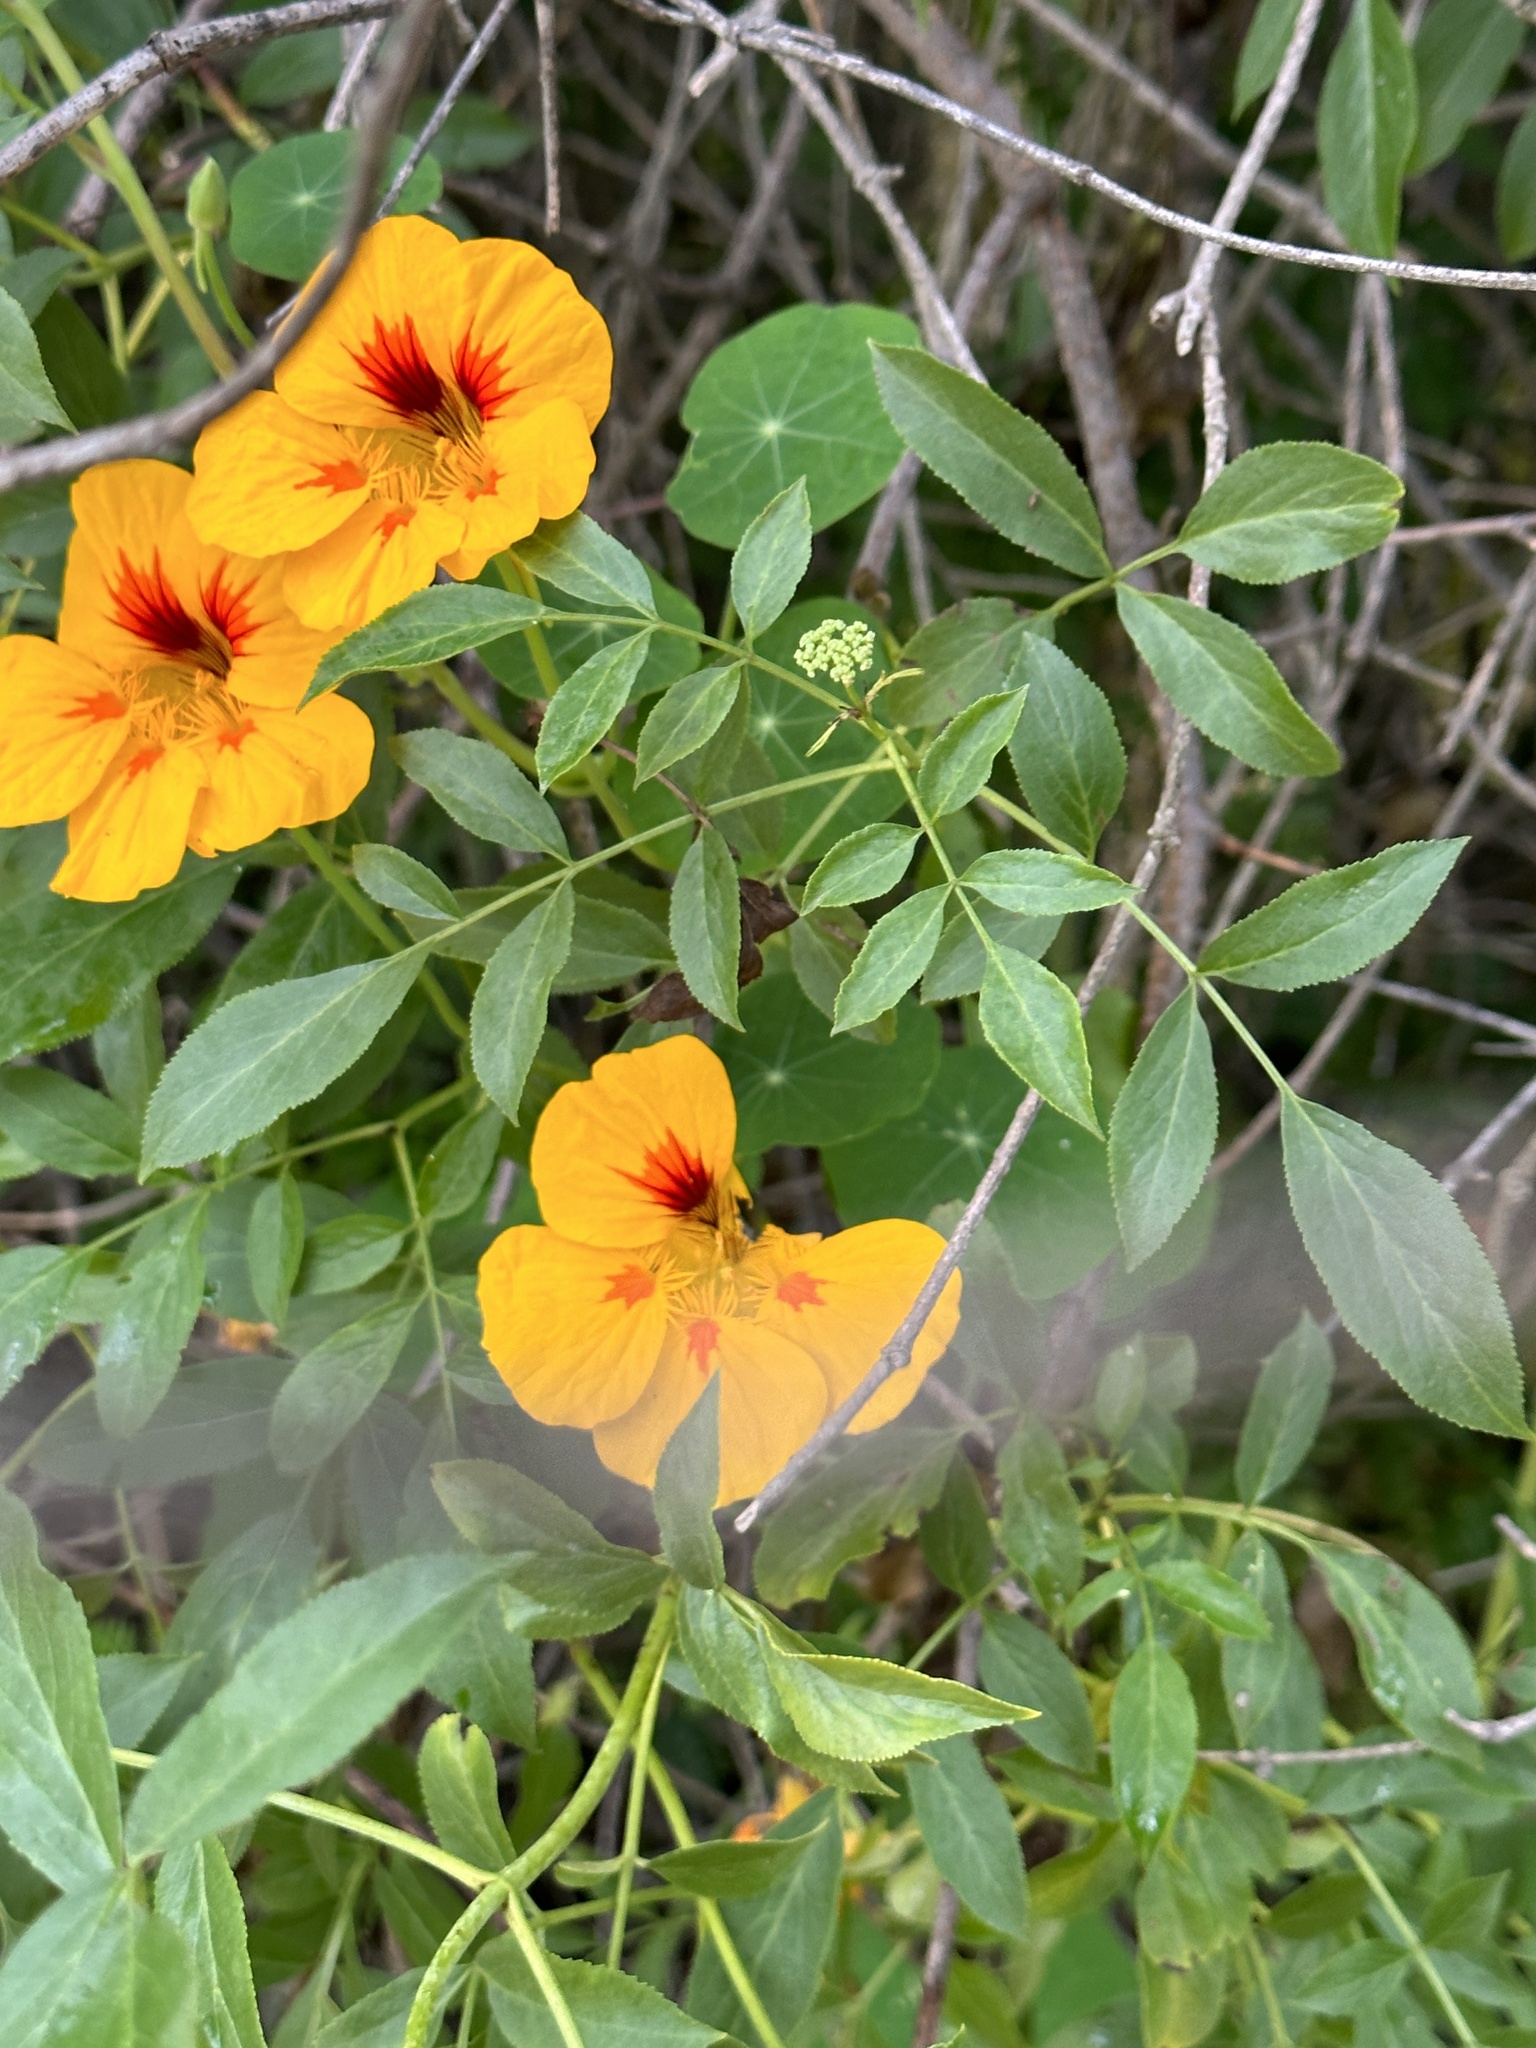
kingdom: Plantae
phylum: Tracheophyta
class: Magnoliopsida
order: Brassicales
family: Tropaeolaceae
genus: Tropaeolum
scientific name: Tropaeolum majus
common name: Nasturtium
